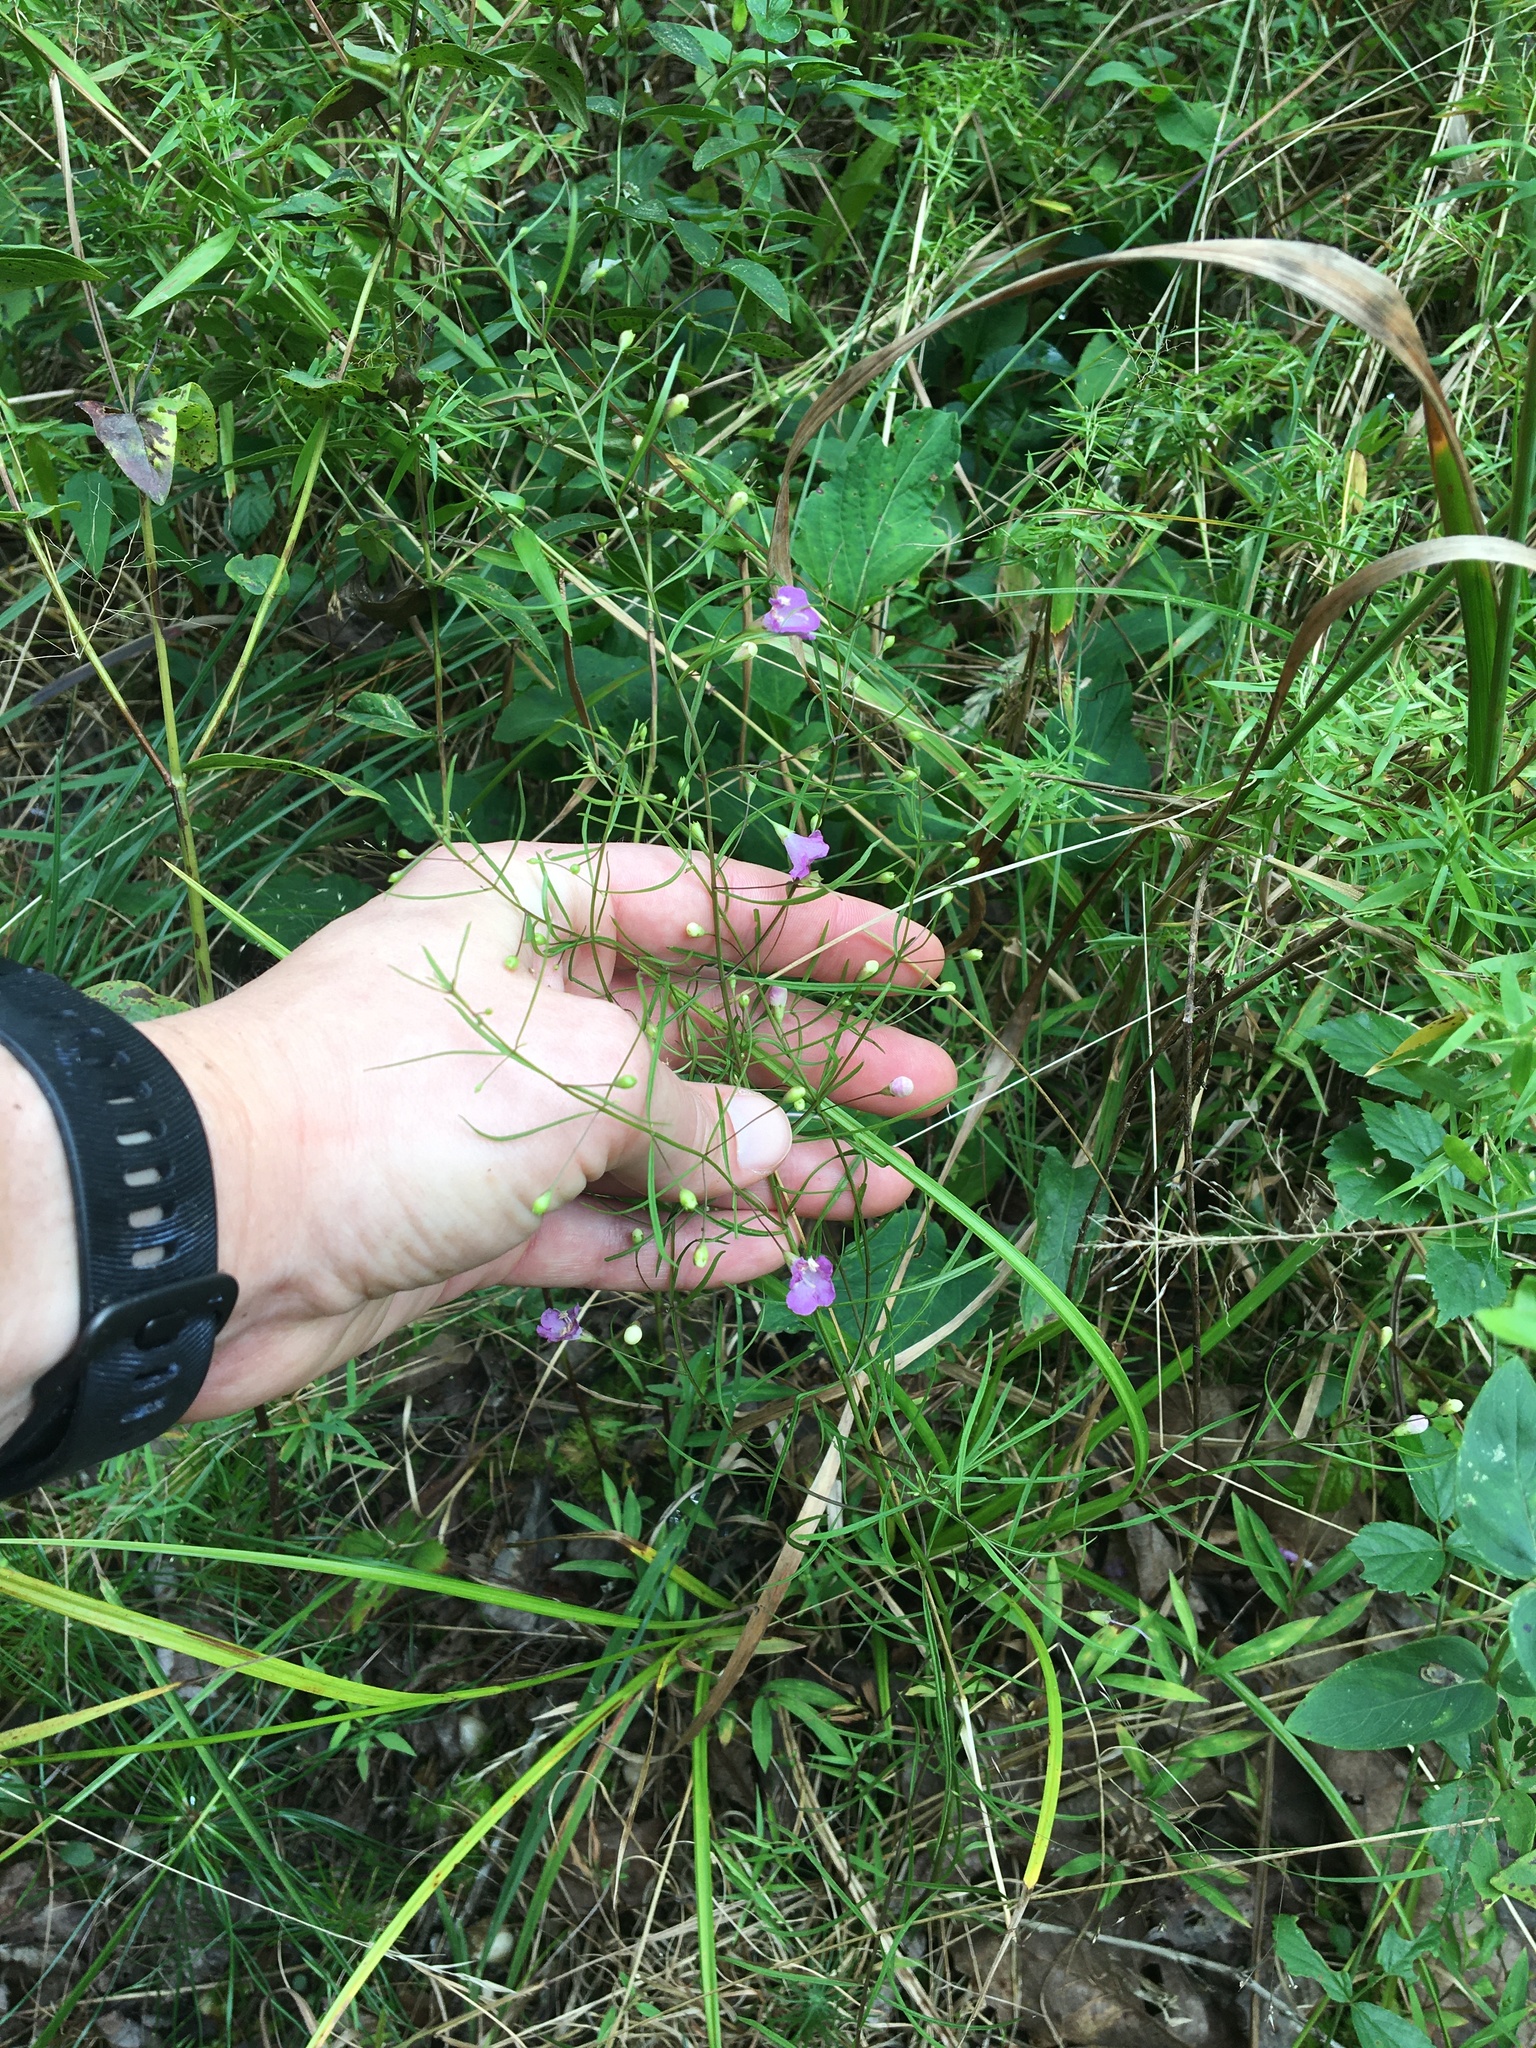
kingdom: Plantae
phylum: Tracheophyta
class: Magnoliopsida
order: Lamiales
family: Orobanchaceae
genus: Agalinis
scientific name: Agalinis tenuifolia
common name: Slender agalinis
